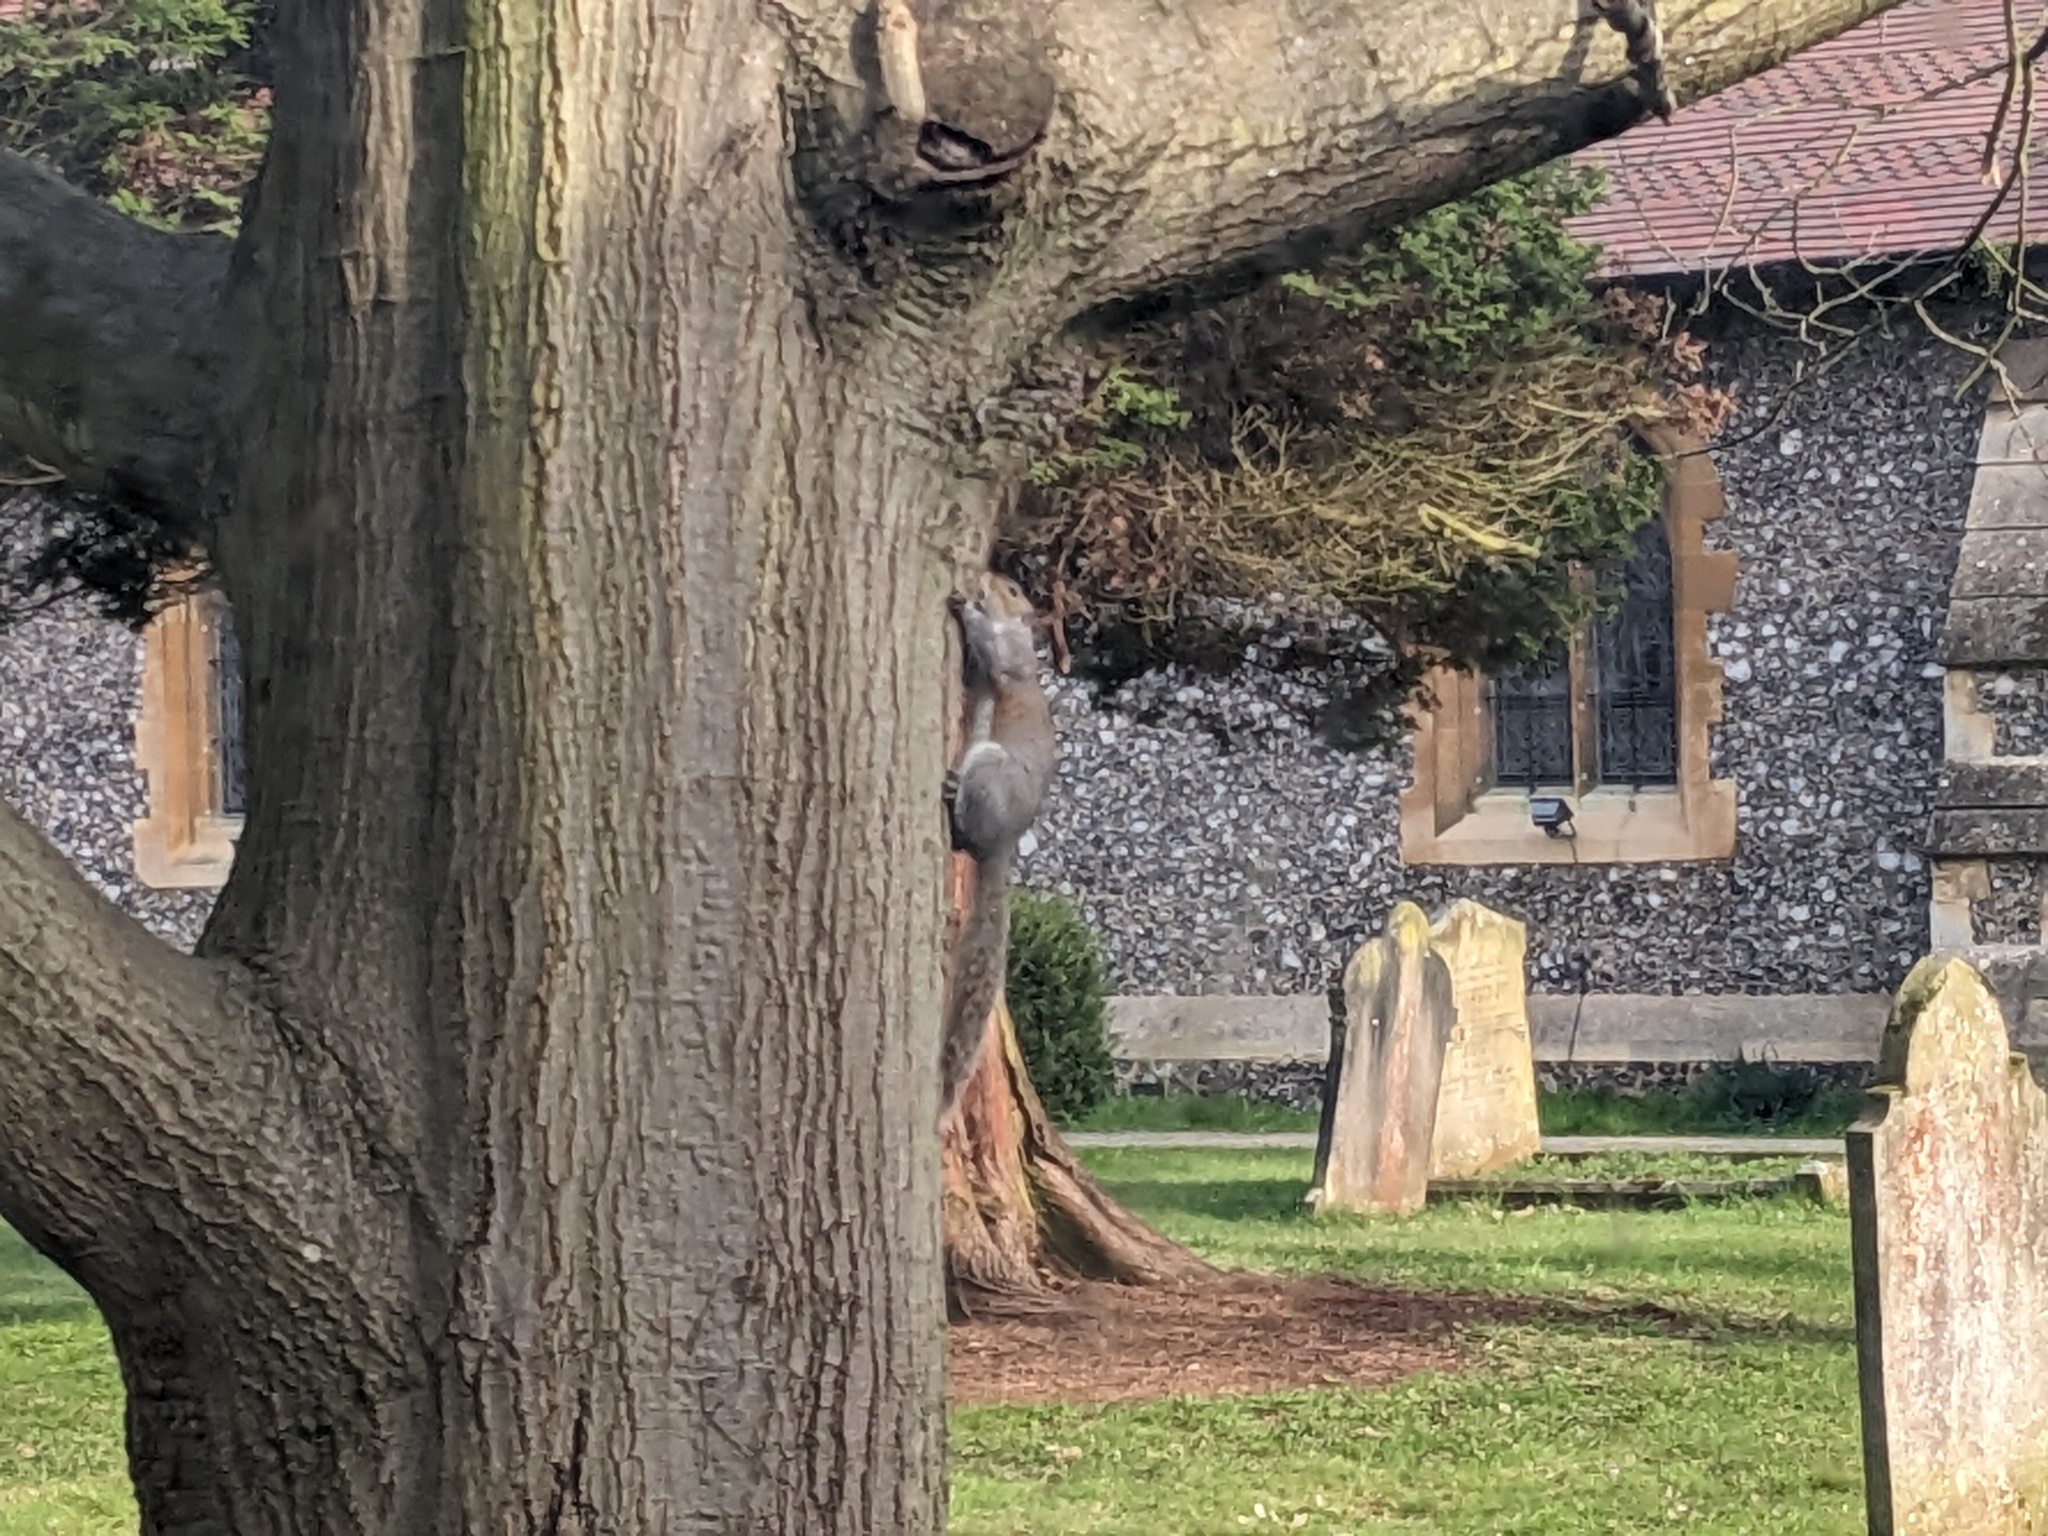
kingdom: Animalia
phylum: Chordata
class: Mammalia
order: Rodentia
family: Sciuridae
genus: Sciurus
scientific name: Sciurus carolinensis
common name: Eastern gray squirrel
